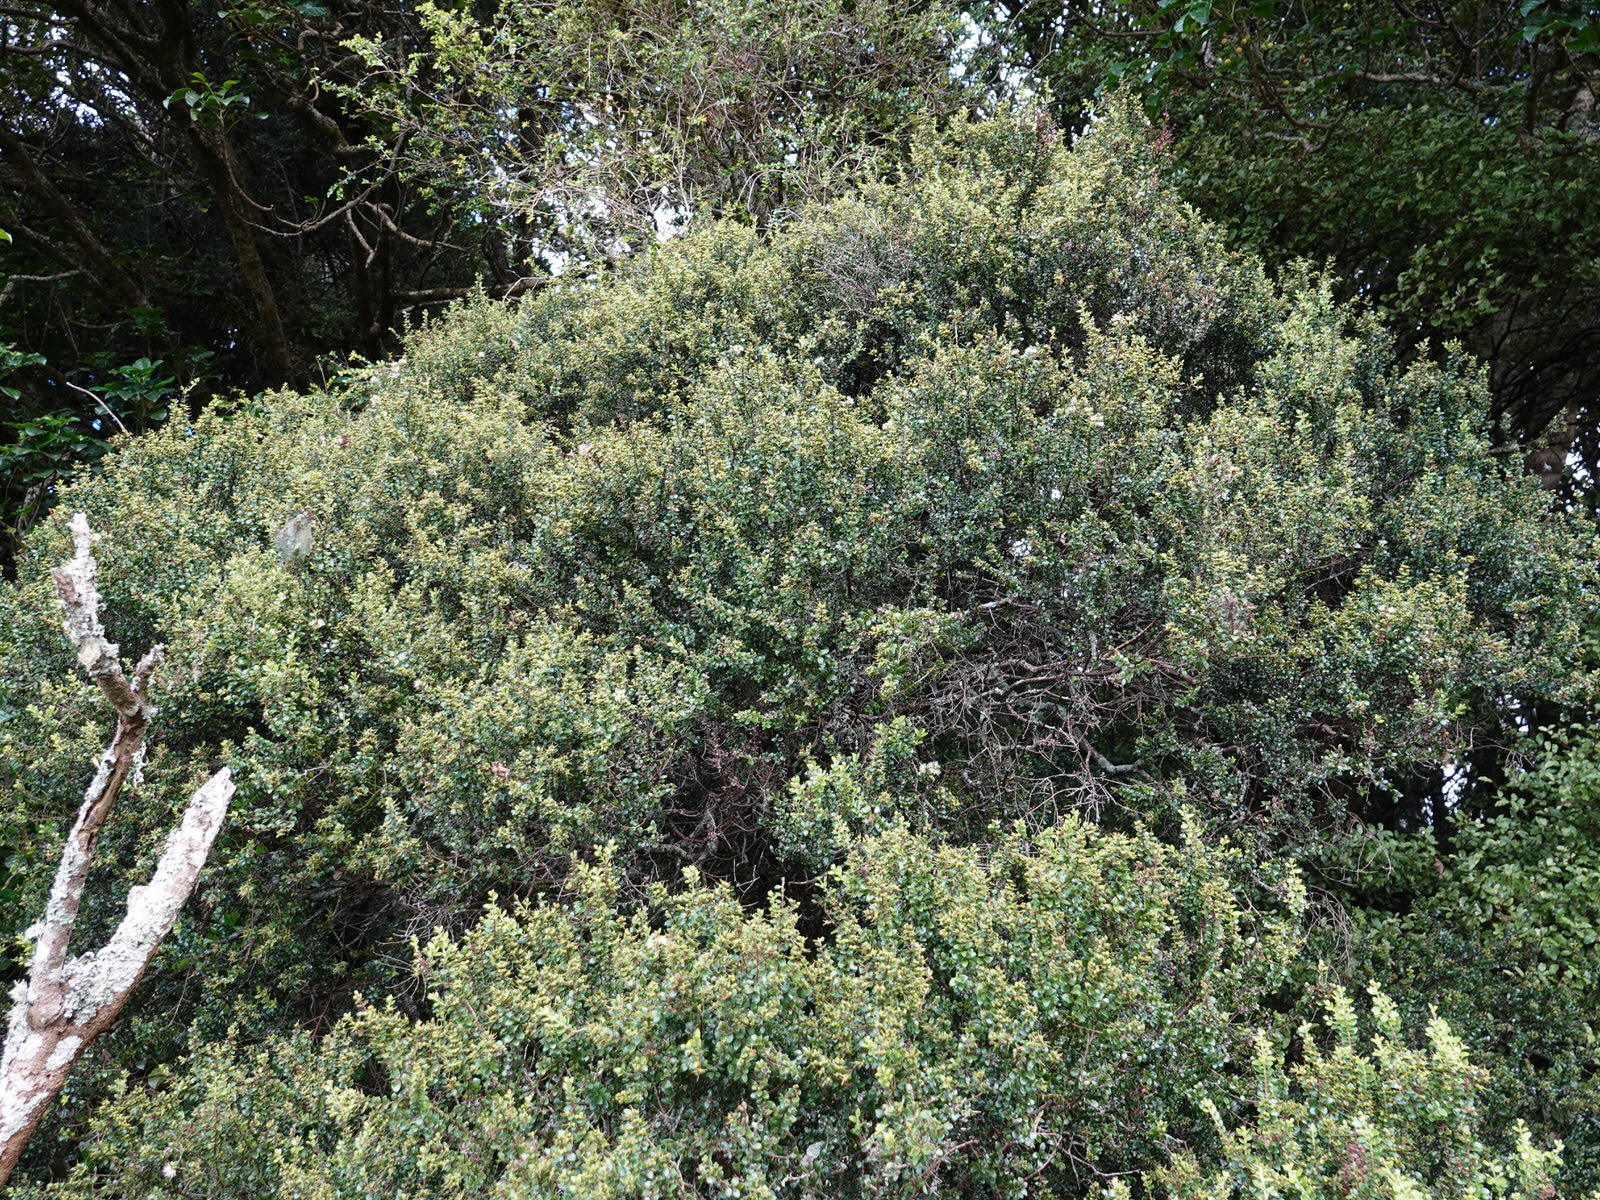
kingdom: Plantae
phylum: Tracheophyta
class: Magnoliopsida
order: Myrtales
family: Myrtaceae
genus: Metrosideros
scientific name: Metrosideros perforata
